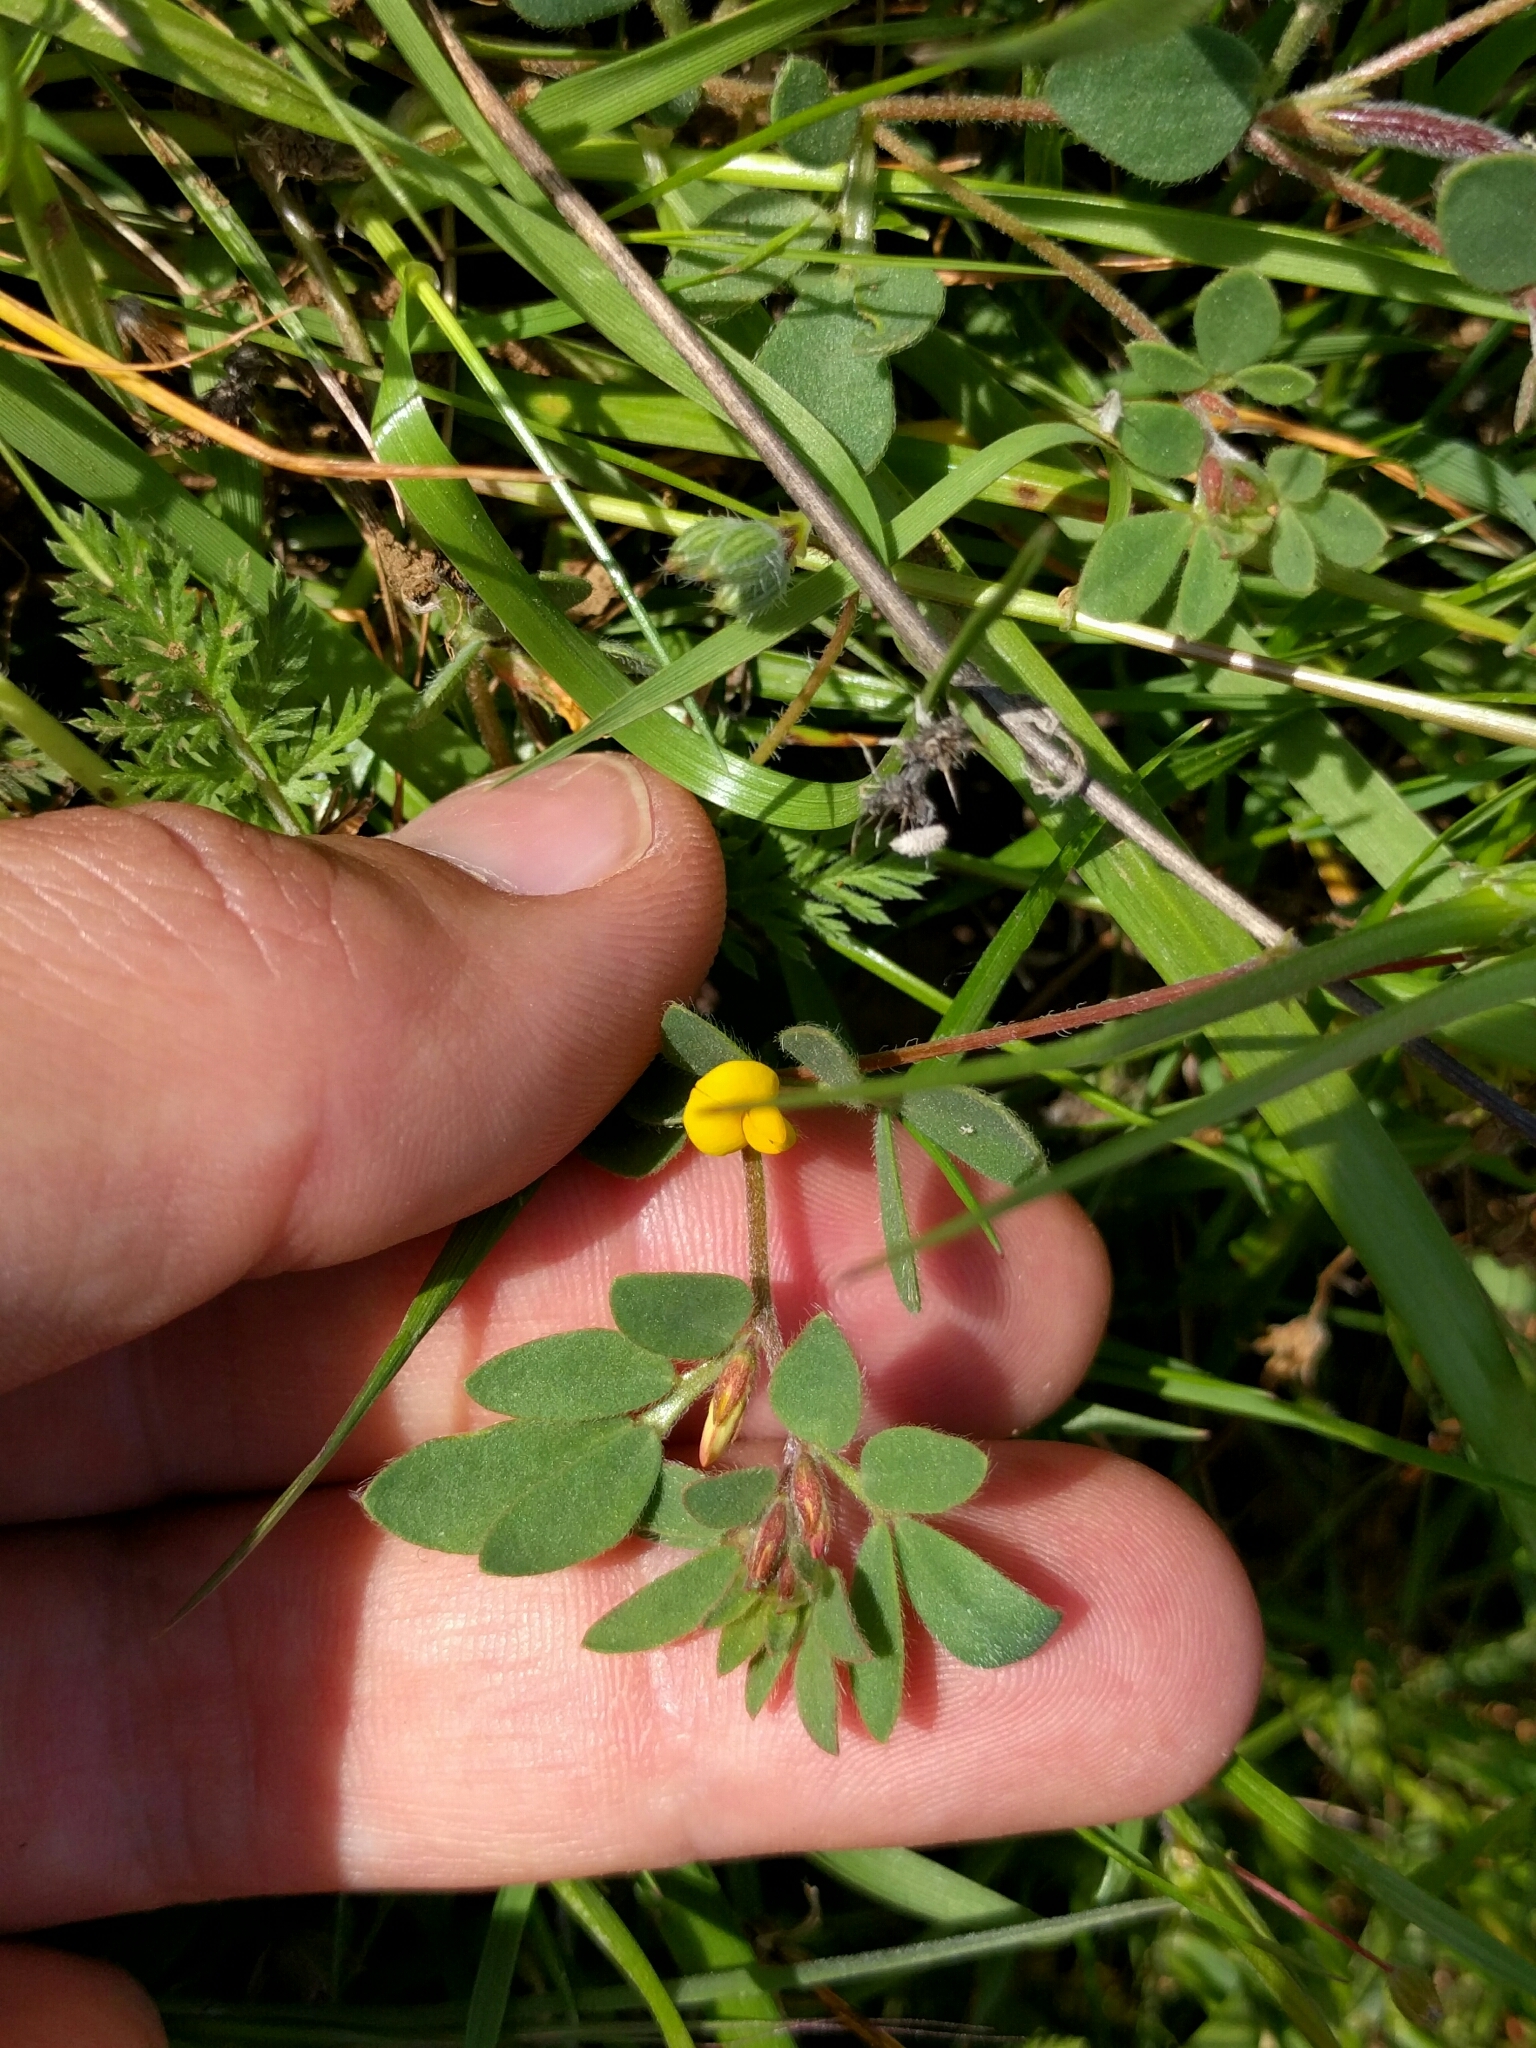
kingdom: Plantae
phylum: Tracheophyta
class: Magnoliopsida
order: Fabales
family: Fabaceae
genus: Acmispon
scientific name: Acmispon wrangelianus
